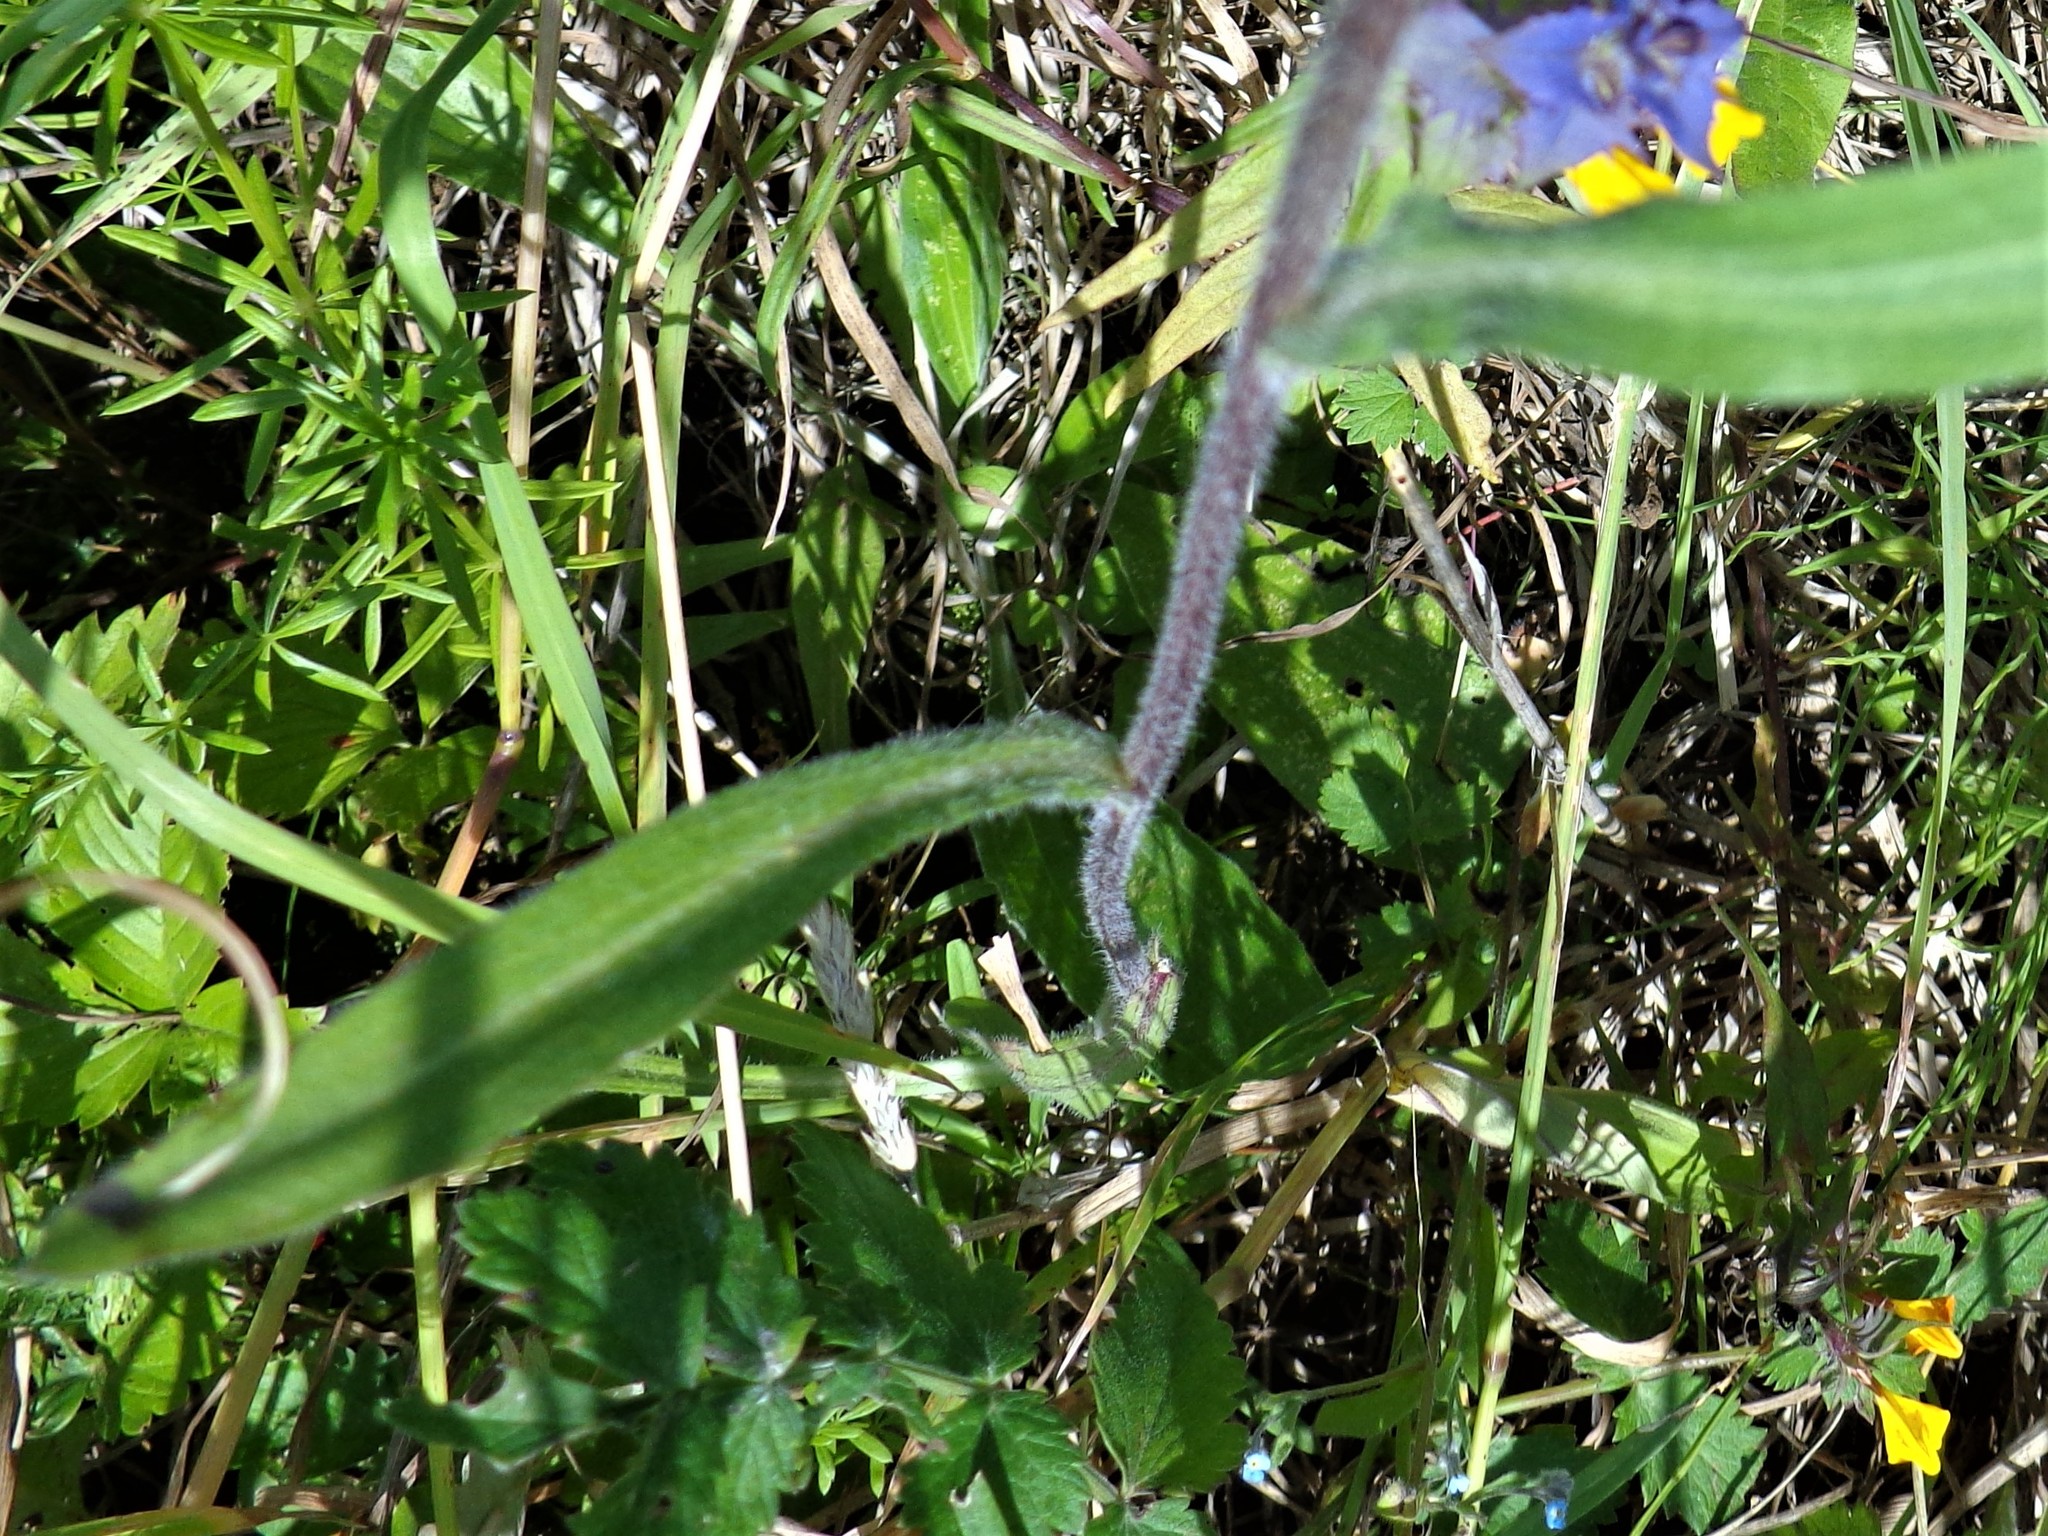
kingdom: Plantae
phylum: Tracheophyta
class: Magnoliopsida
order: Asterales
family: Asteraceae
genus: Erigeron
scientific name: Erigeron acris
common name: Blue fleabane
